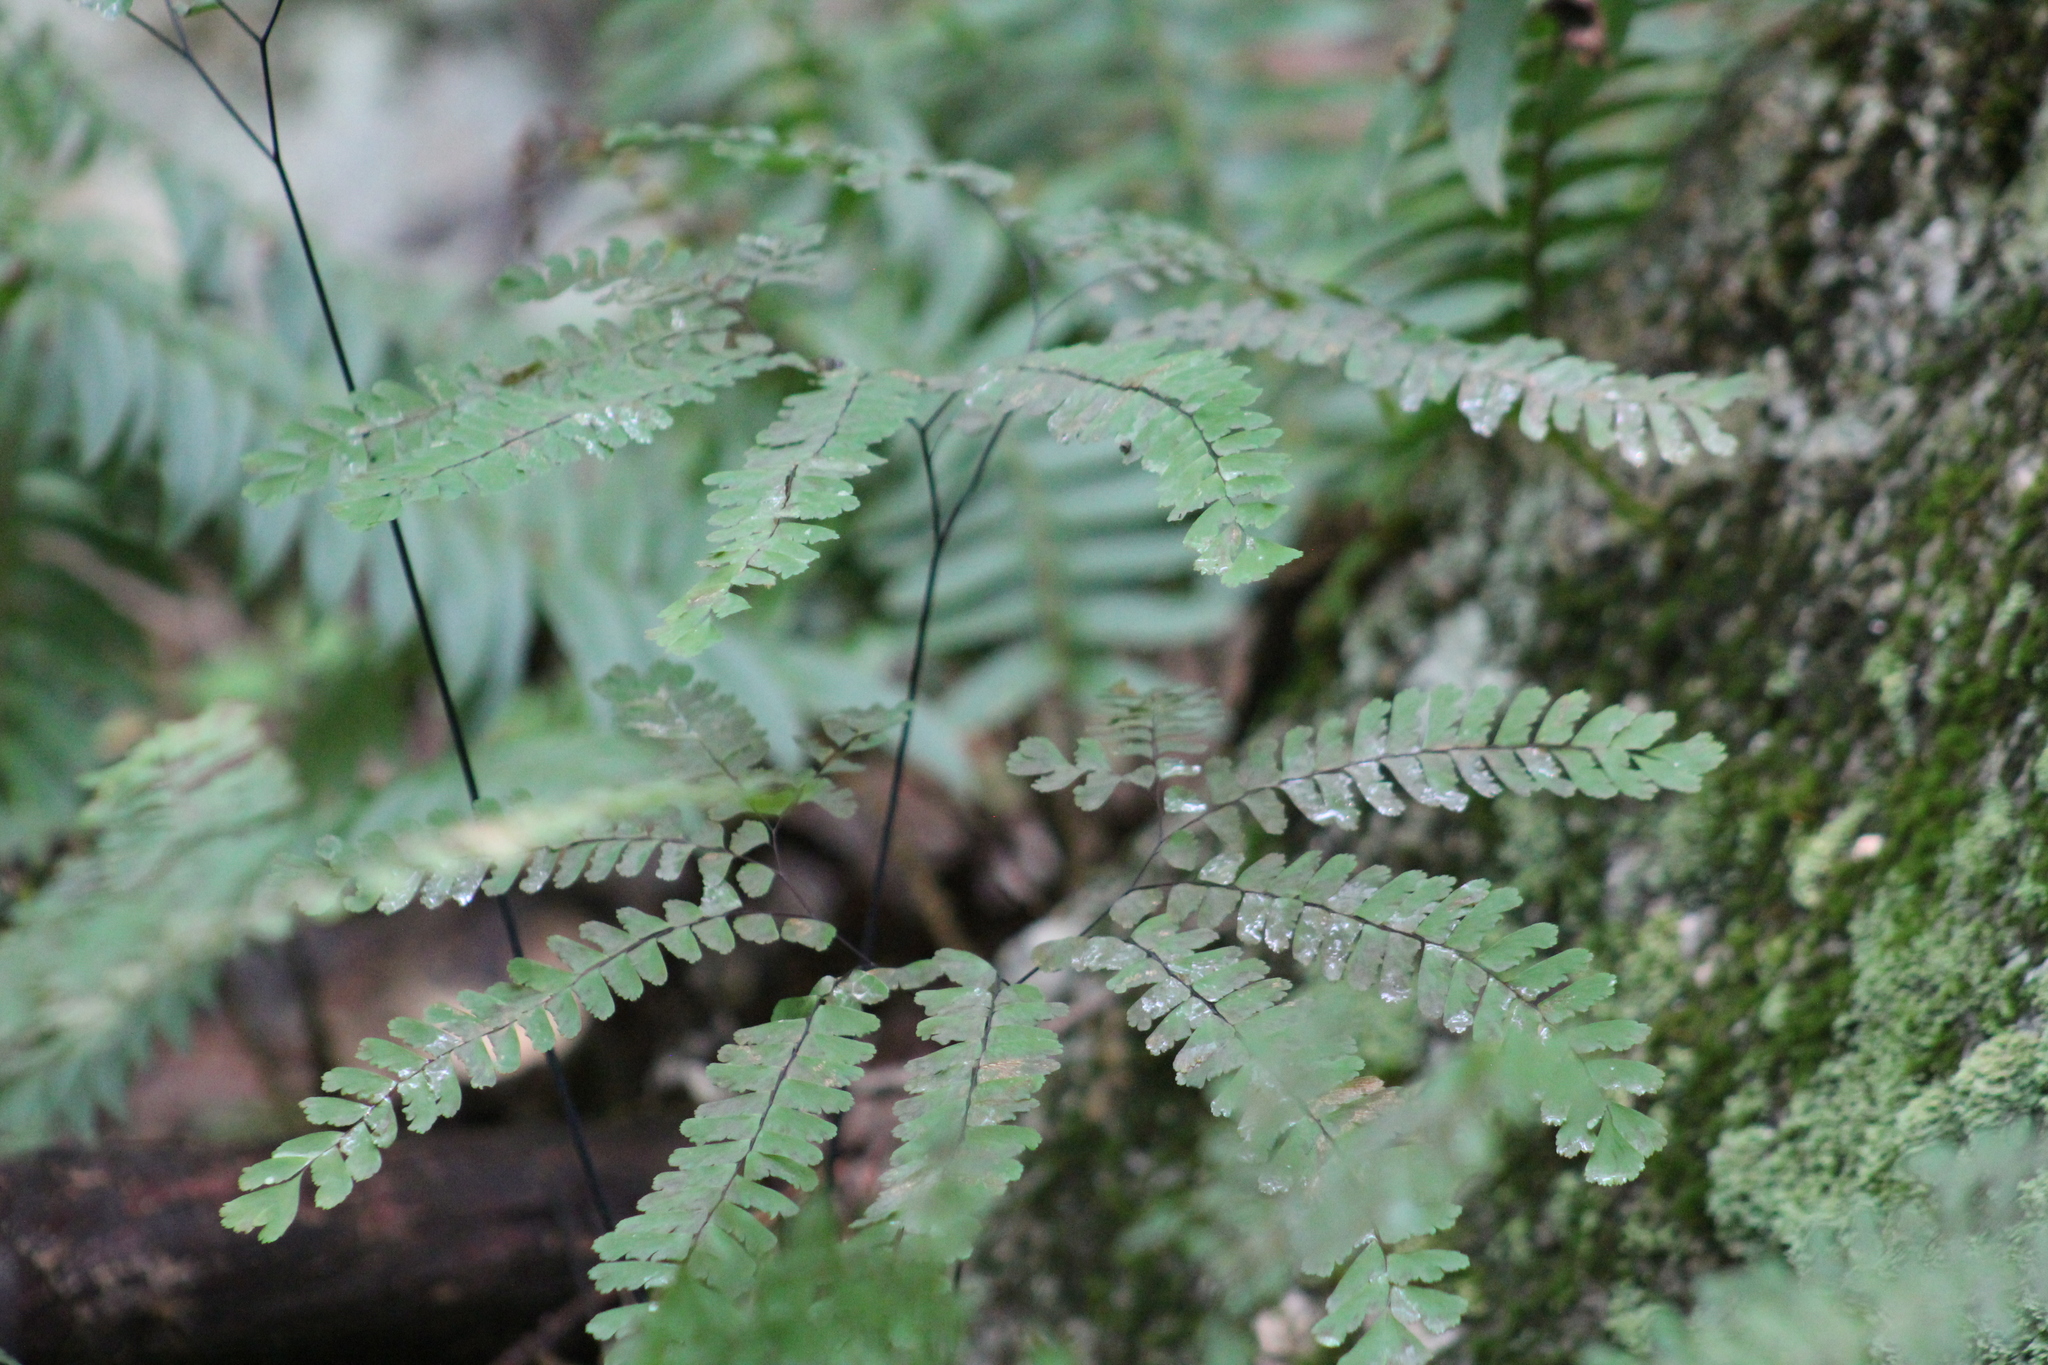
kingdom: Plantae
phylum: Tracheophyta
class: Polypodiopsida
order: Polypodiales
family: Pteridaceae
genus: Adiantum
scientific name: Adiantum pedatum
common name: Five-finger fern
